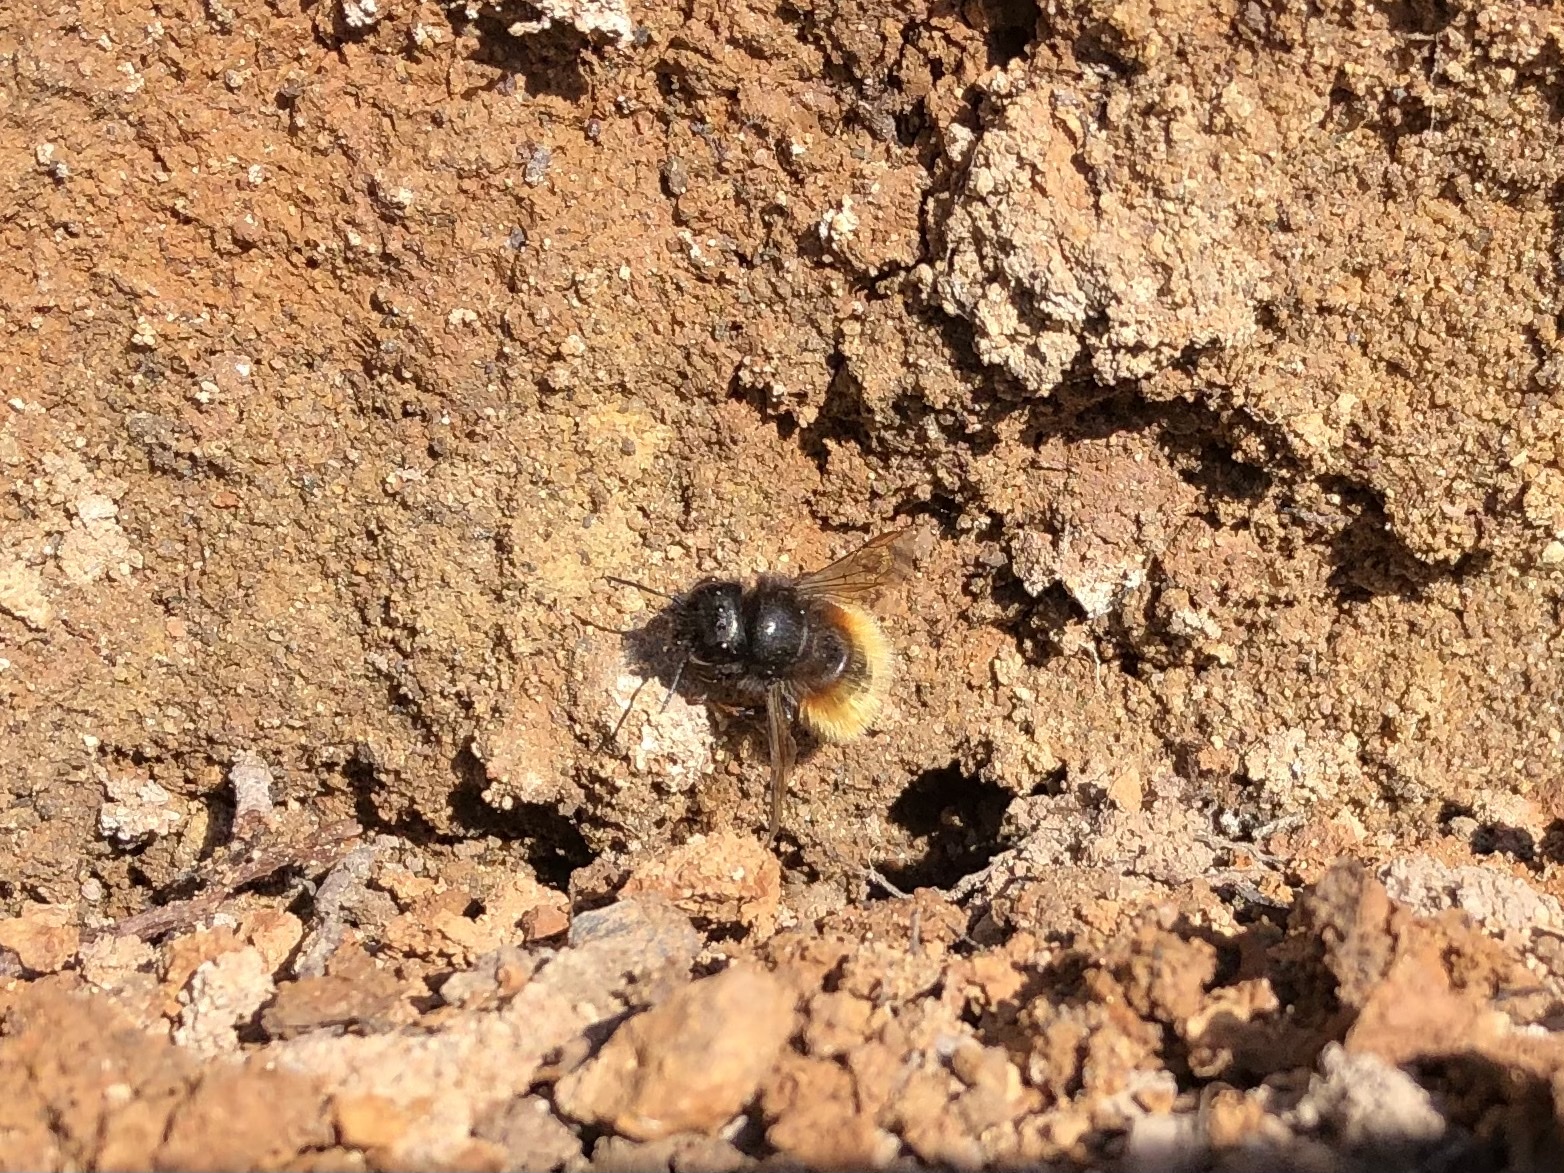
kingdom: Animalia
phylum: Arthropoda
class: Insecta
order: Hymenoptera
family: Megachilidae
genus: Osmia
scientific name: Osmia cornuta
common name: Mason bee
